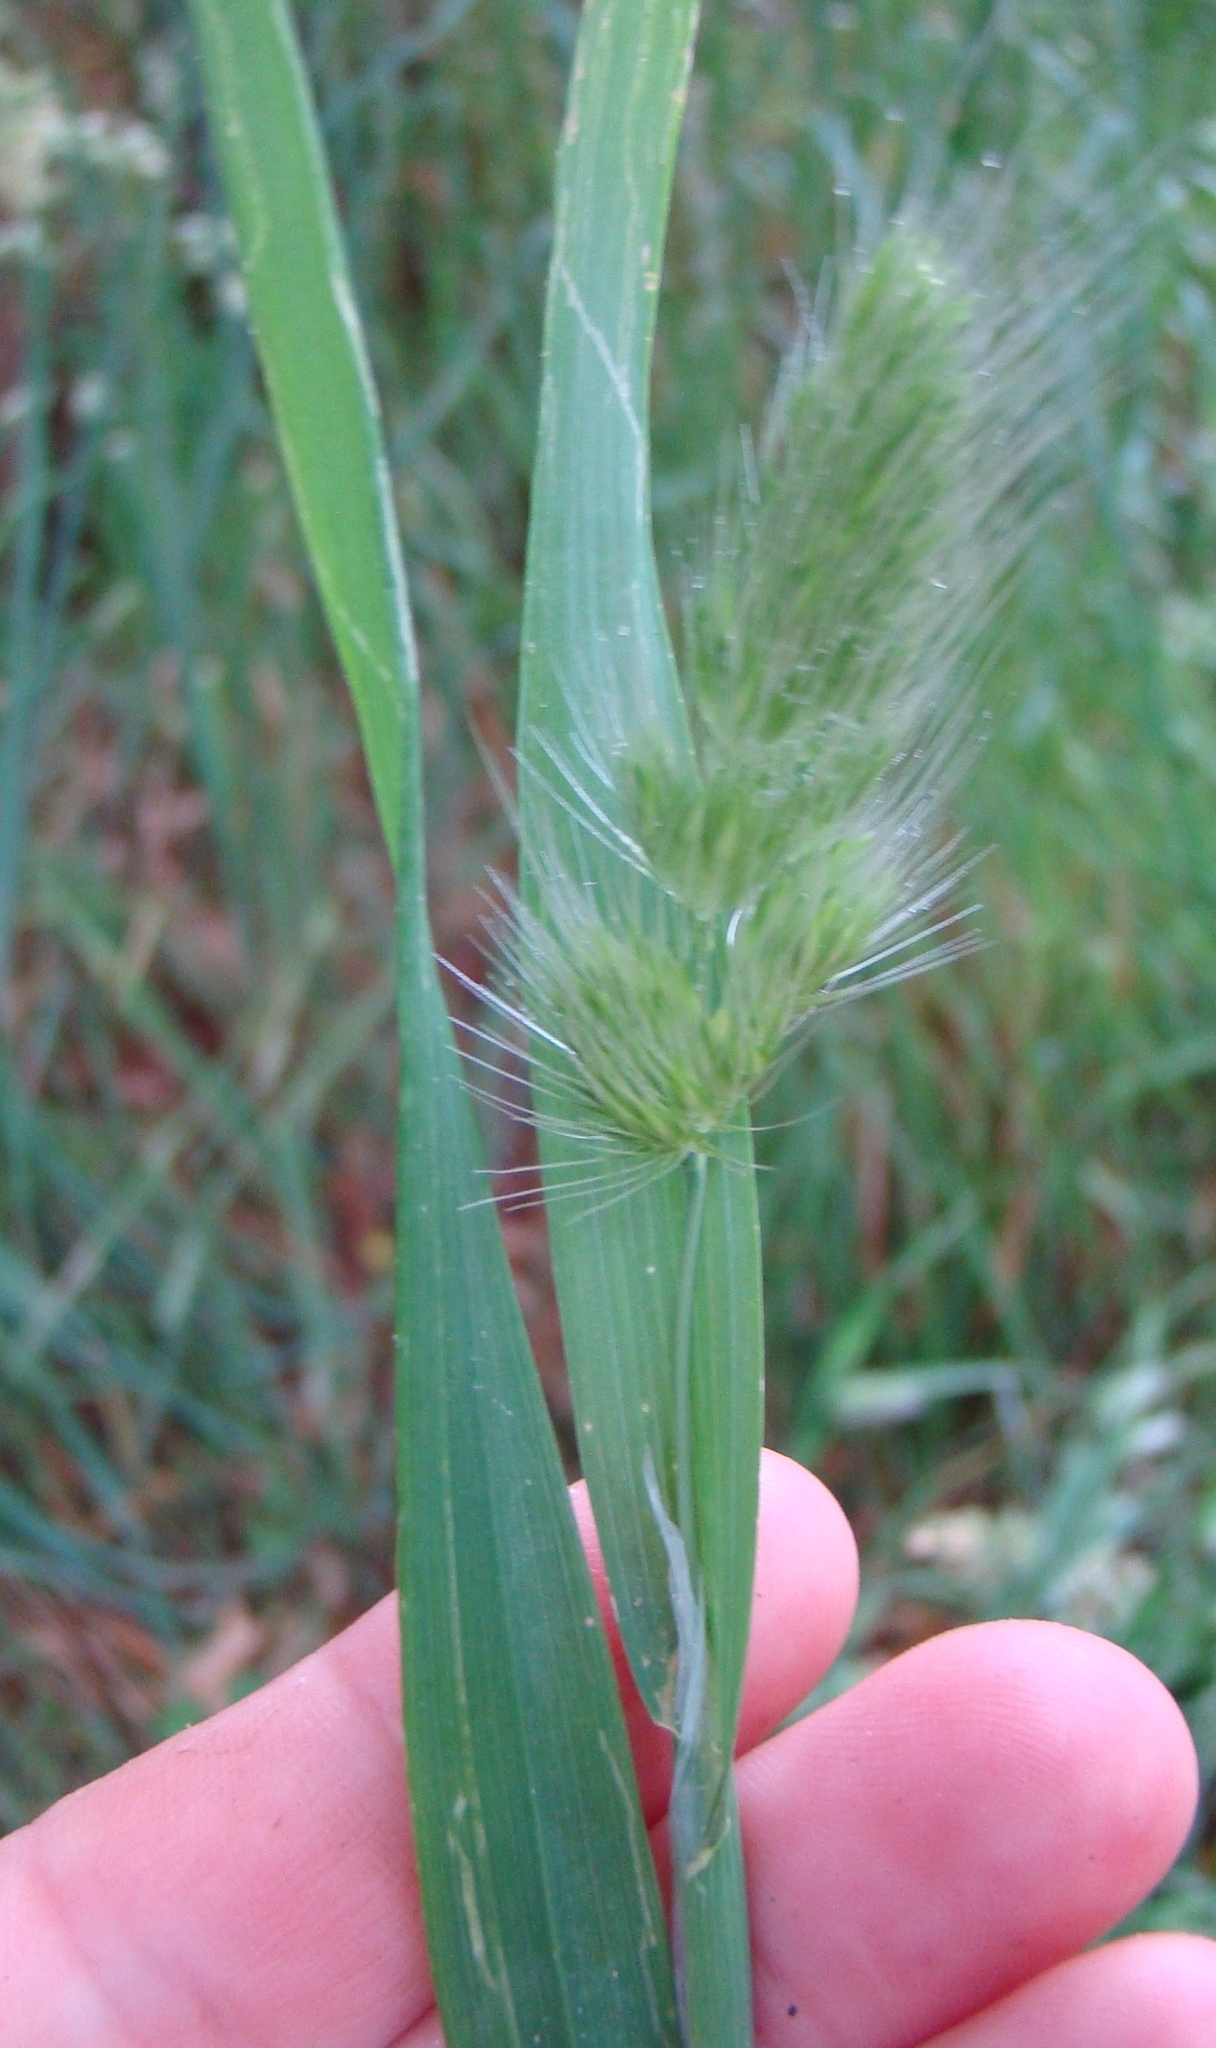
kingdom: Plantae
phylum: Tracheophyta
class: Liliopsida
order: Poales
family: Poaceae
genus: Cynosurus
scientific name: Cynosurus echinatus
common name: Rough dog's-tail
